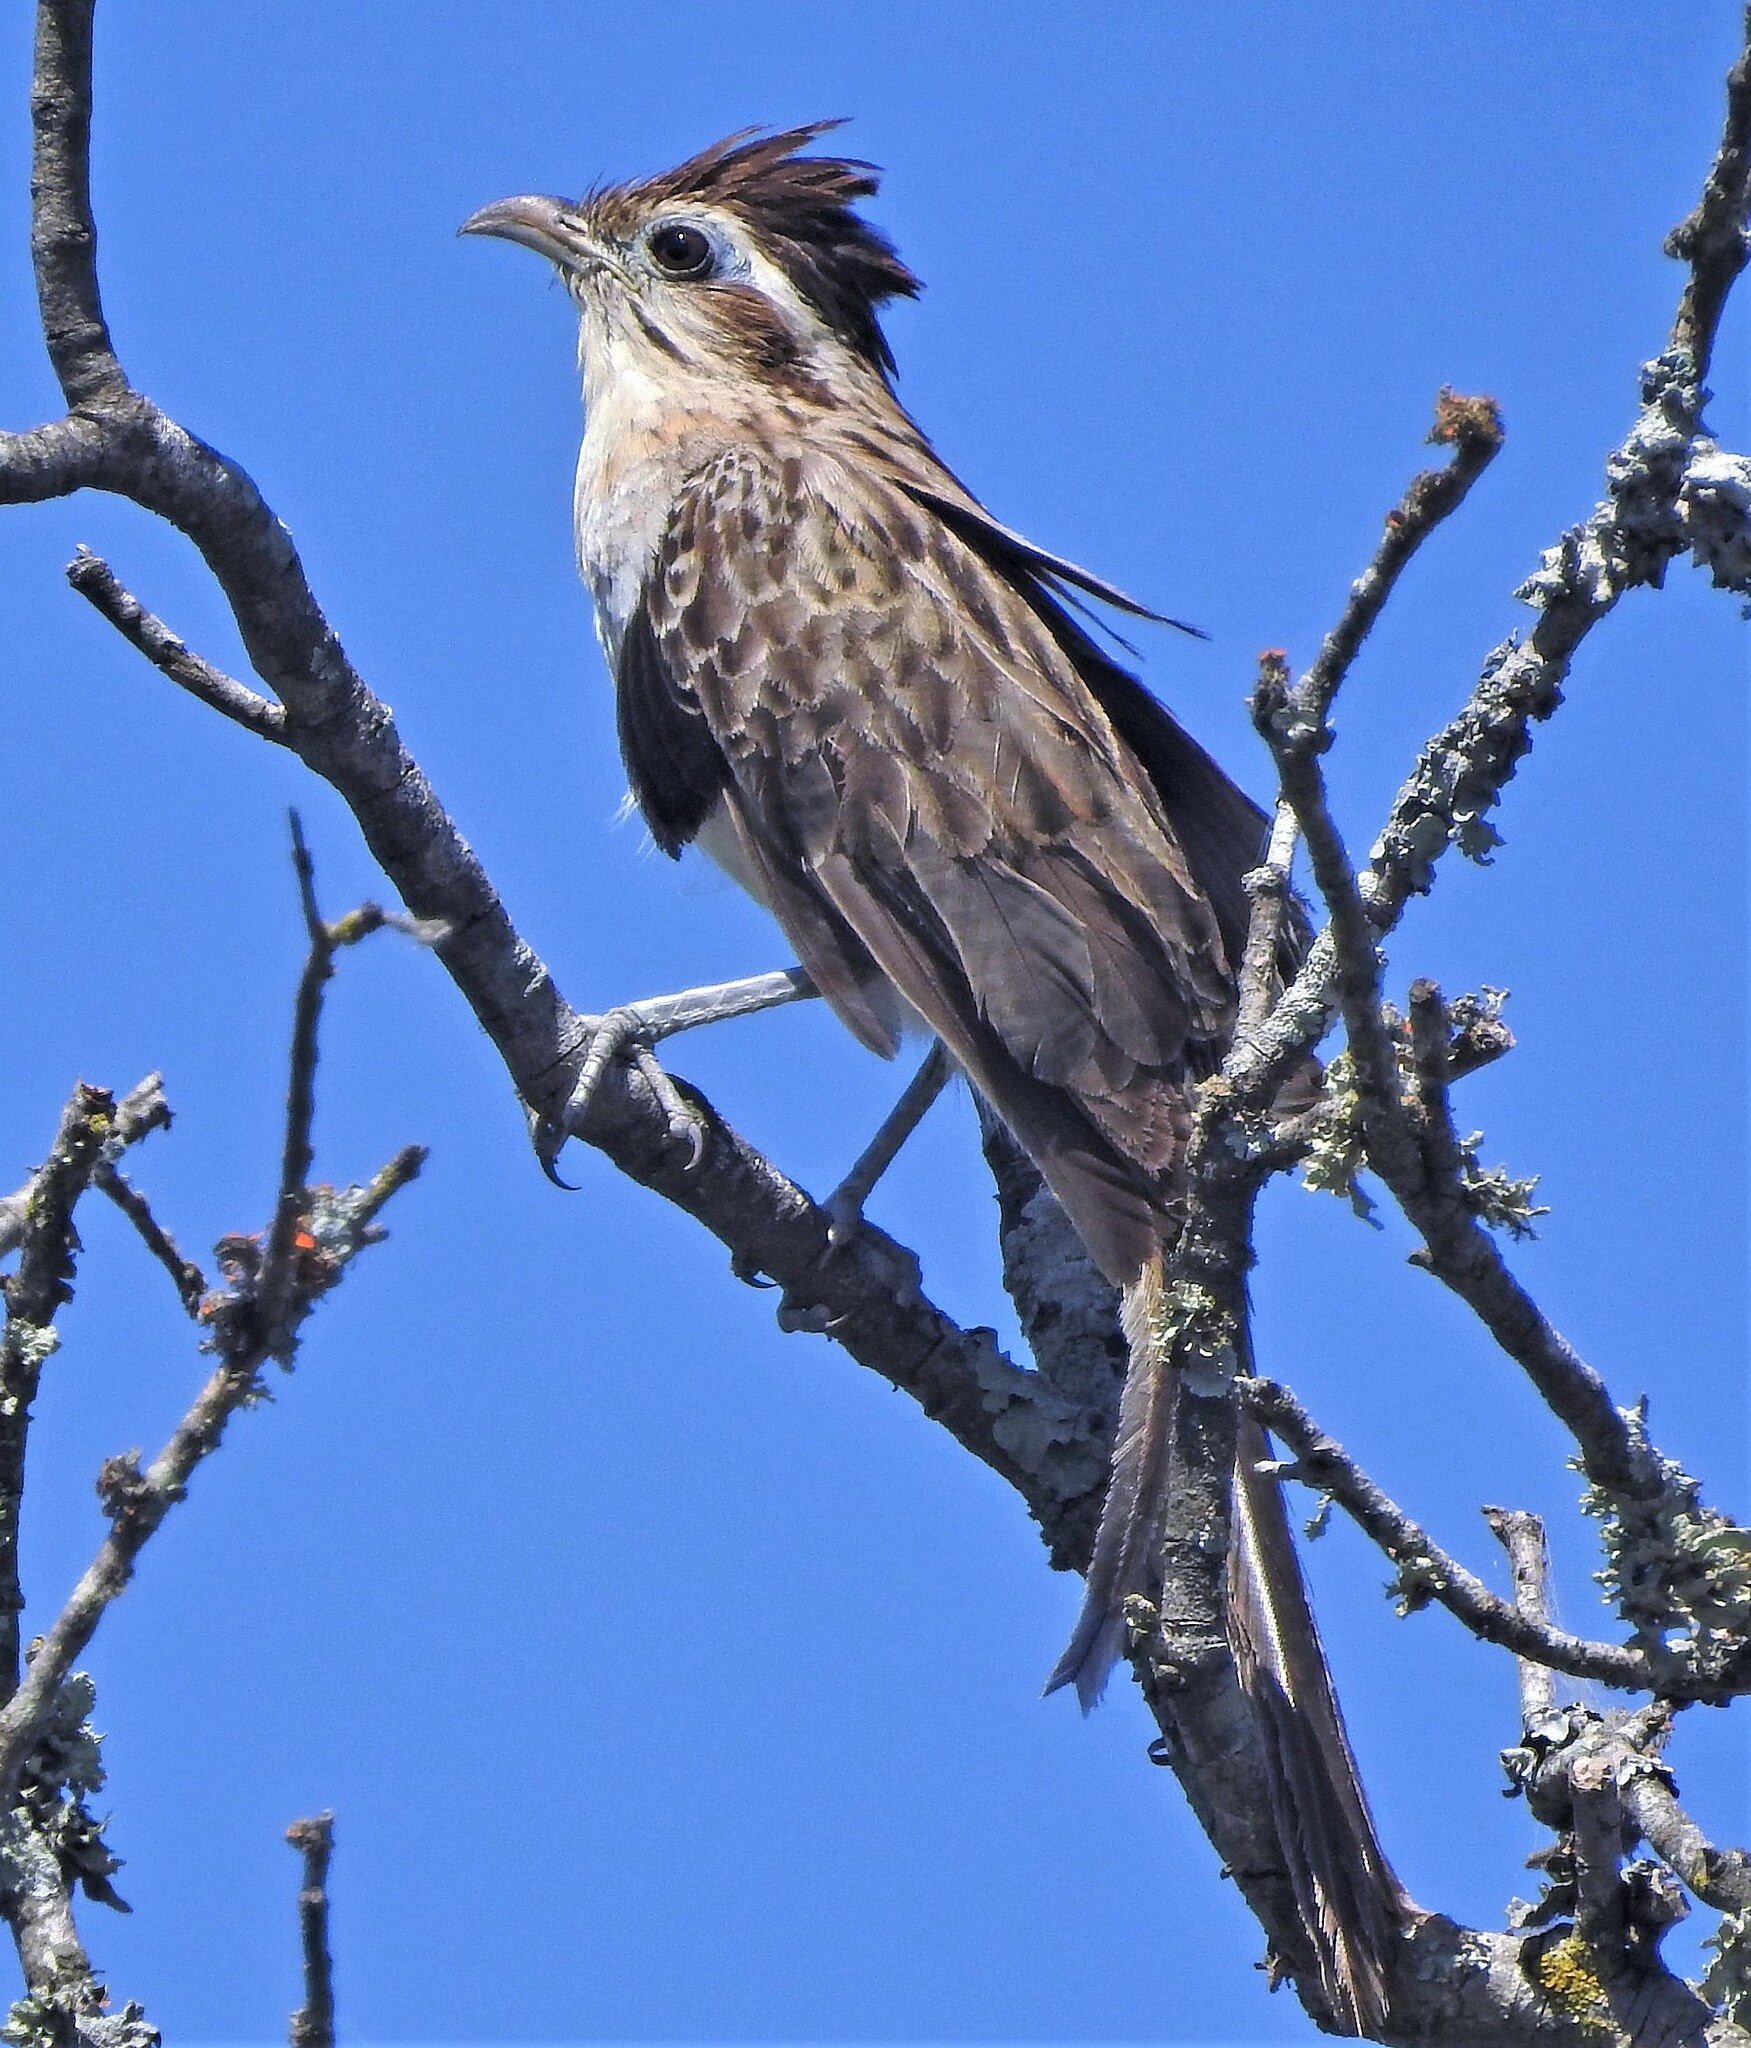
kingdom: Animalia
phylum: Chordata
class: Aves
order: Cuculiformes
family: Cuculidae
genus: Tapera
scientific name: Tapera naevia
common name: Striped cuckoo
